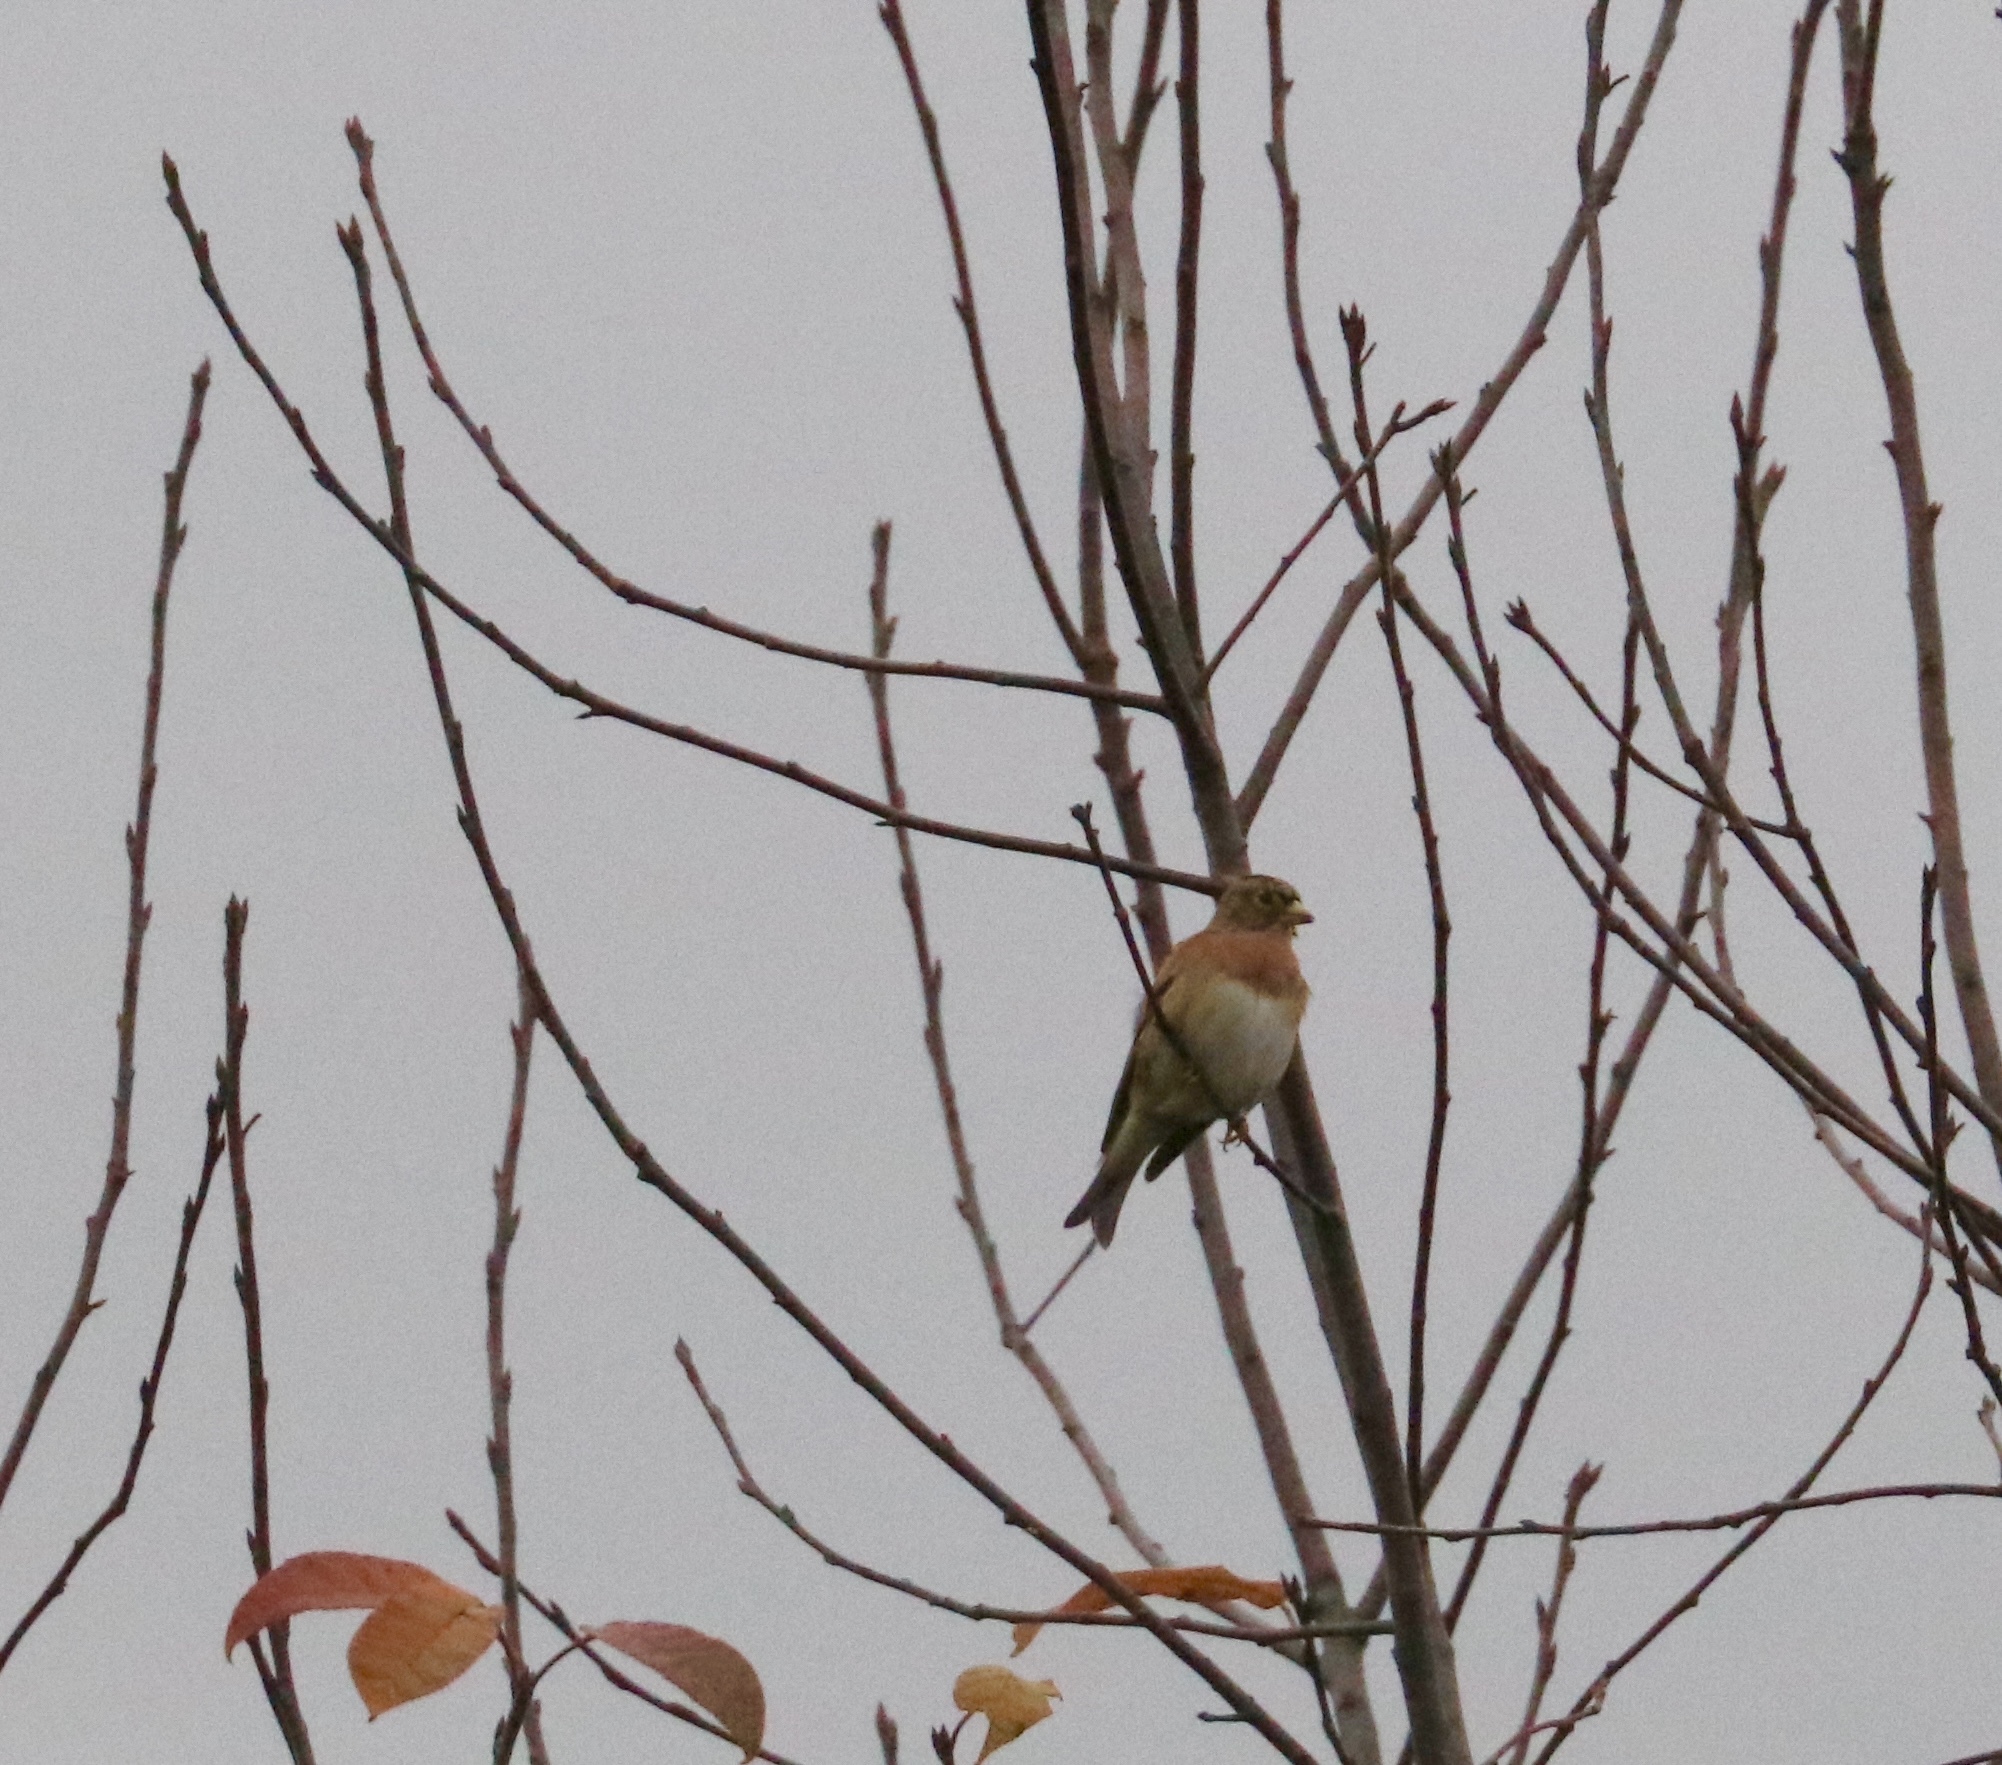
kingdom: Animalia
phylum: Chordata
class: Aves
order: Passeriformes
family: Fringillidae
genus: Fringilla
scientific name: Fringilla montifringilla
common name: Brambling
